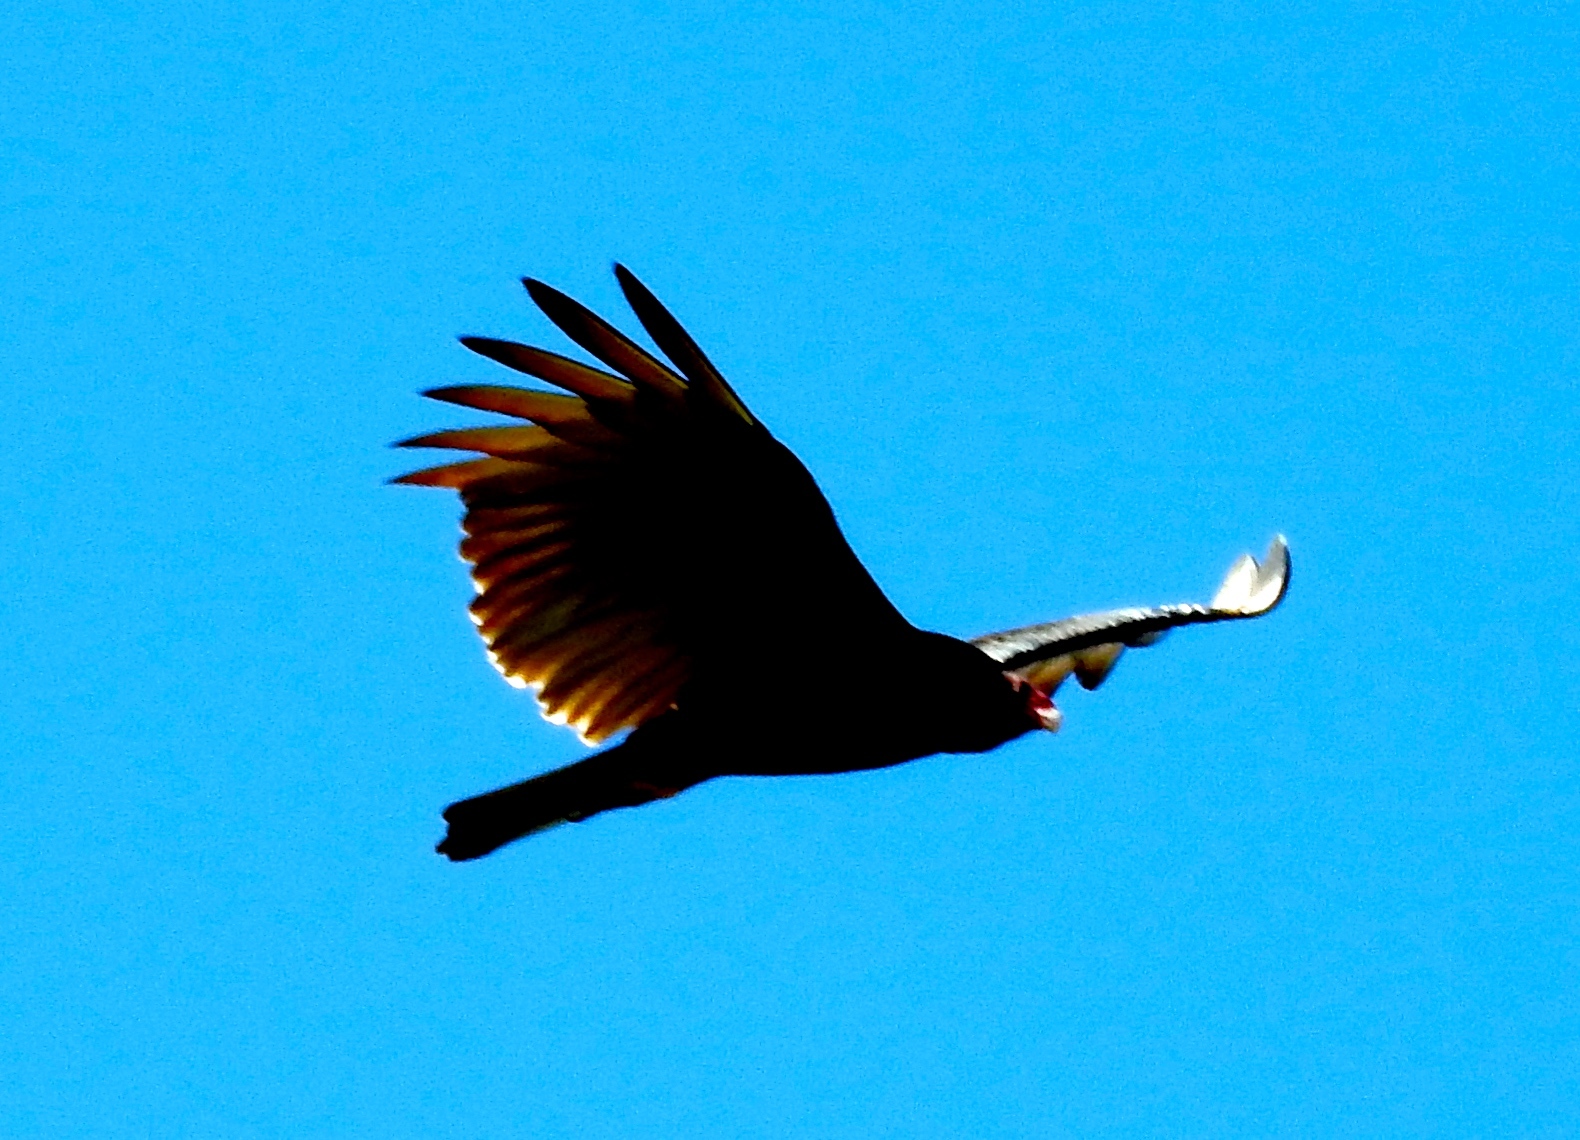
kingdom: Animalia
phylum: Chordata
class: Aves
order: Accipitriformes
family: Cathartidae
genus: Cathartes
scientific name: Cathartes aura
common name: Turkey vulture
